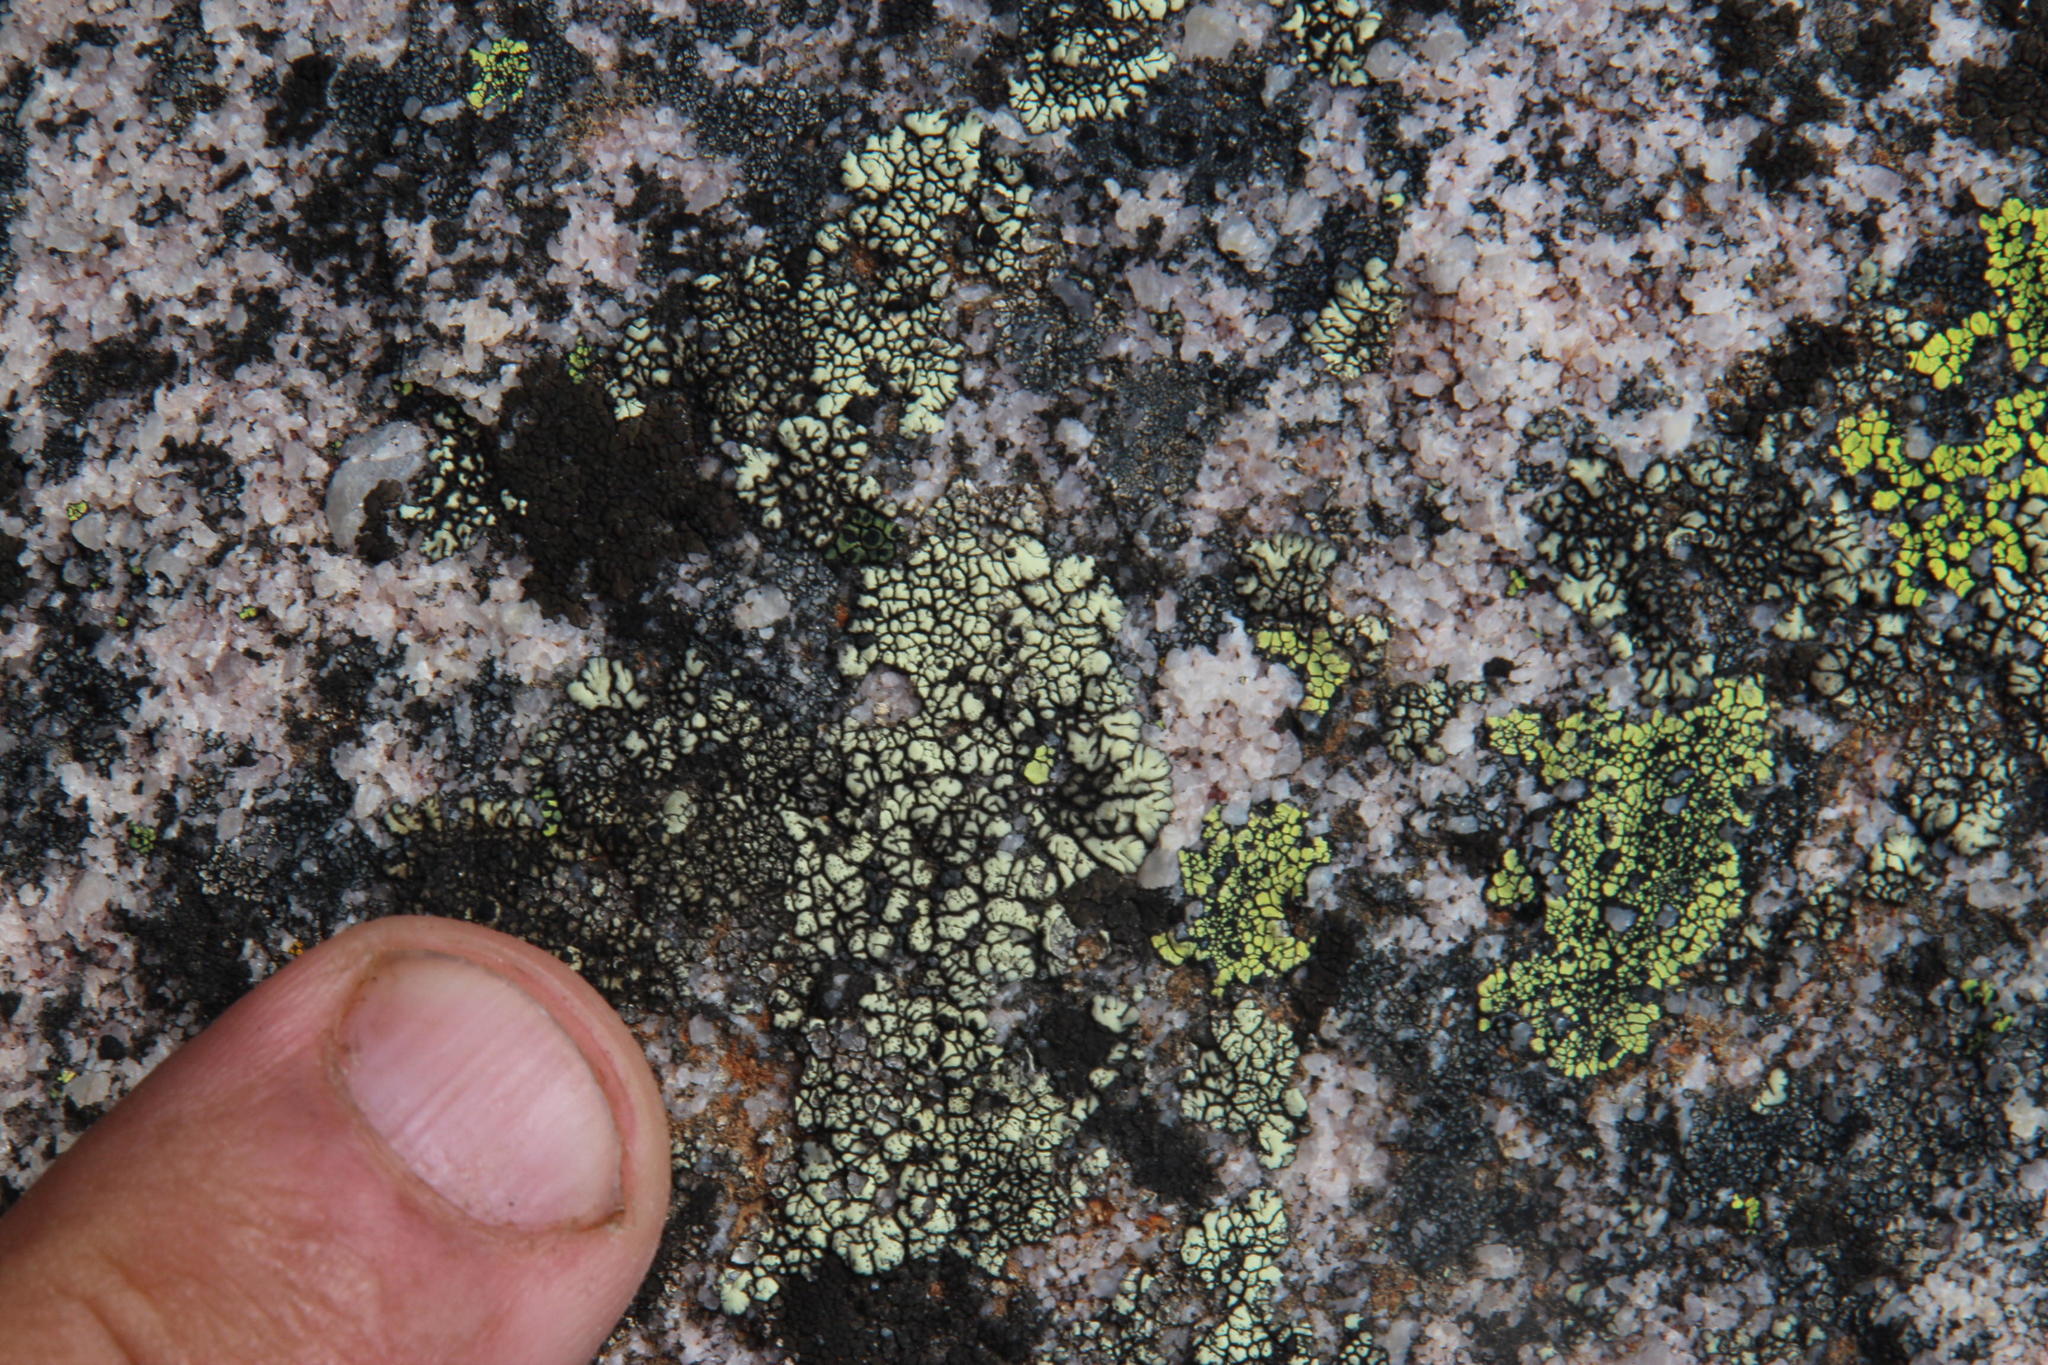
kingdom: Fungi
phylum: Ascomycota
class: Lecanoromycetes
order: Caliciales
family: Caliciaceae
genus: Dimelaena
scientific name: Dimelaena oreina
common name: Golden moonglow lichen
